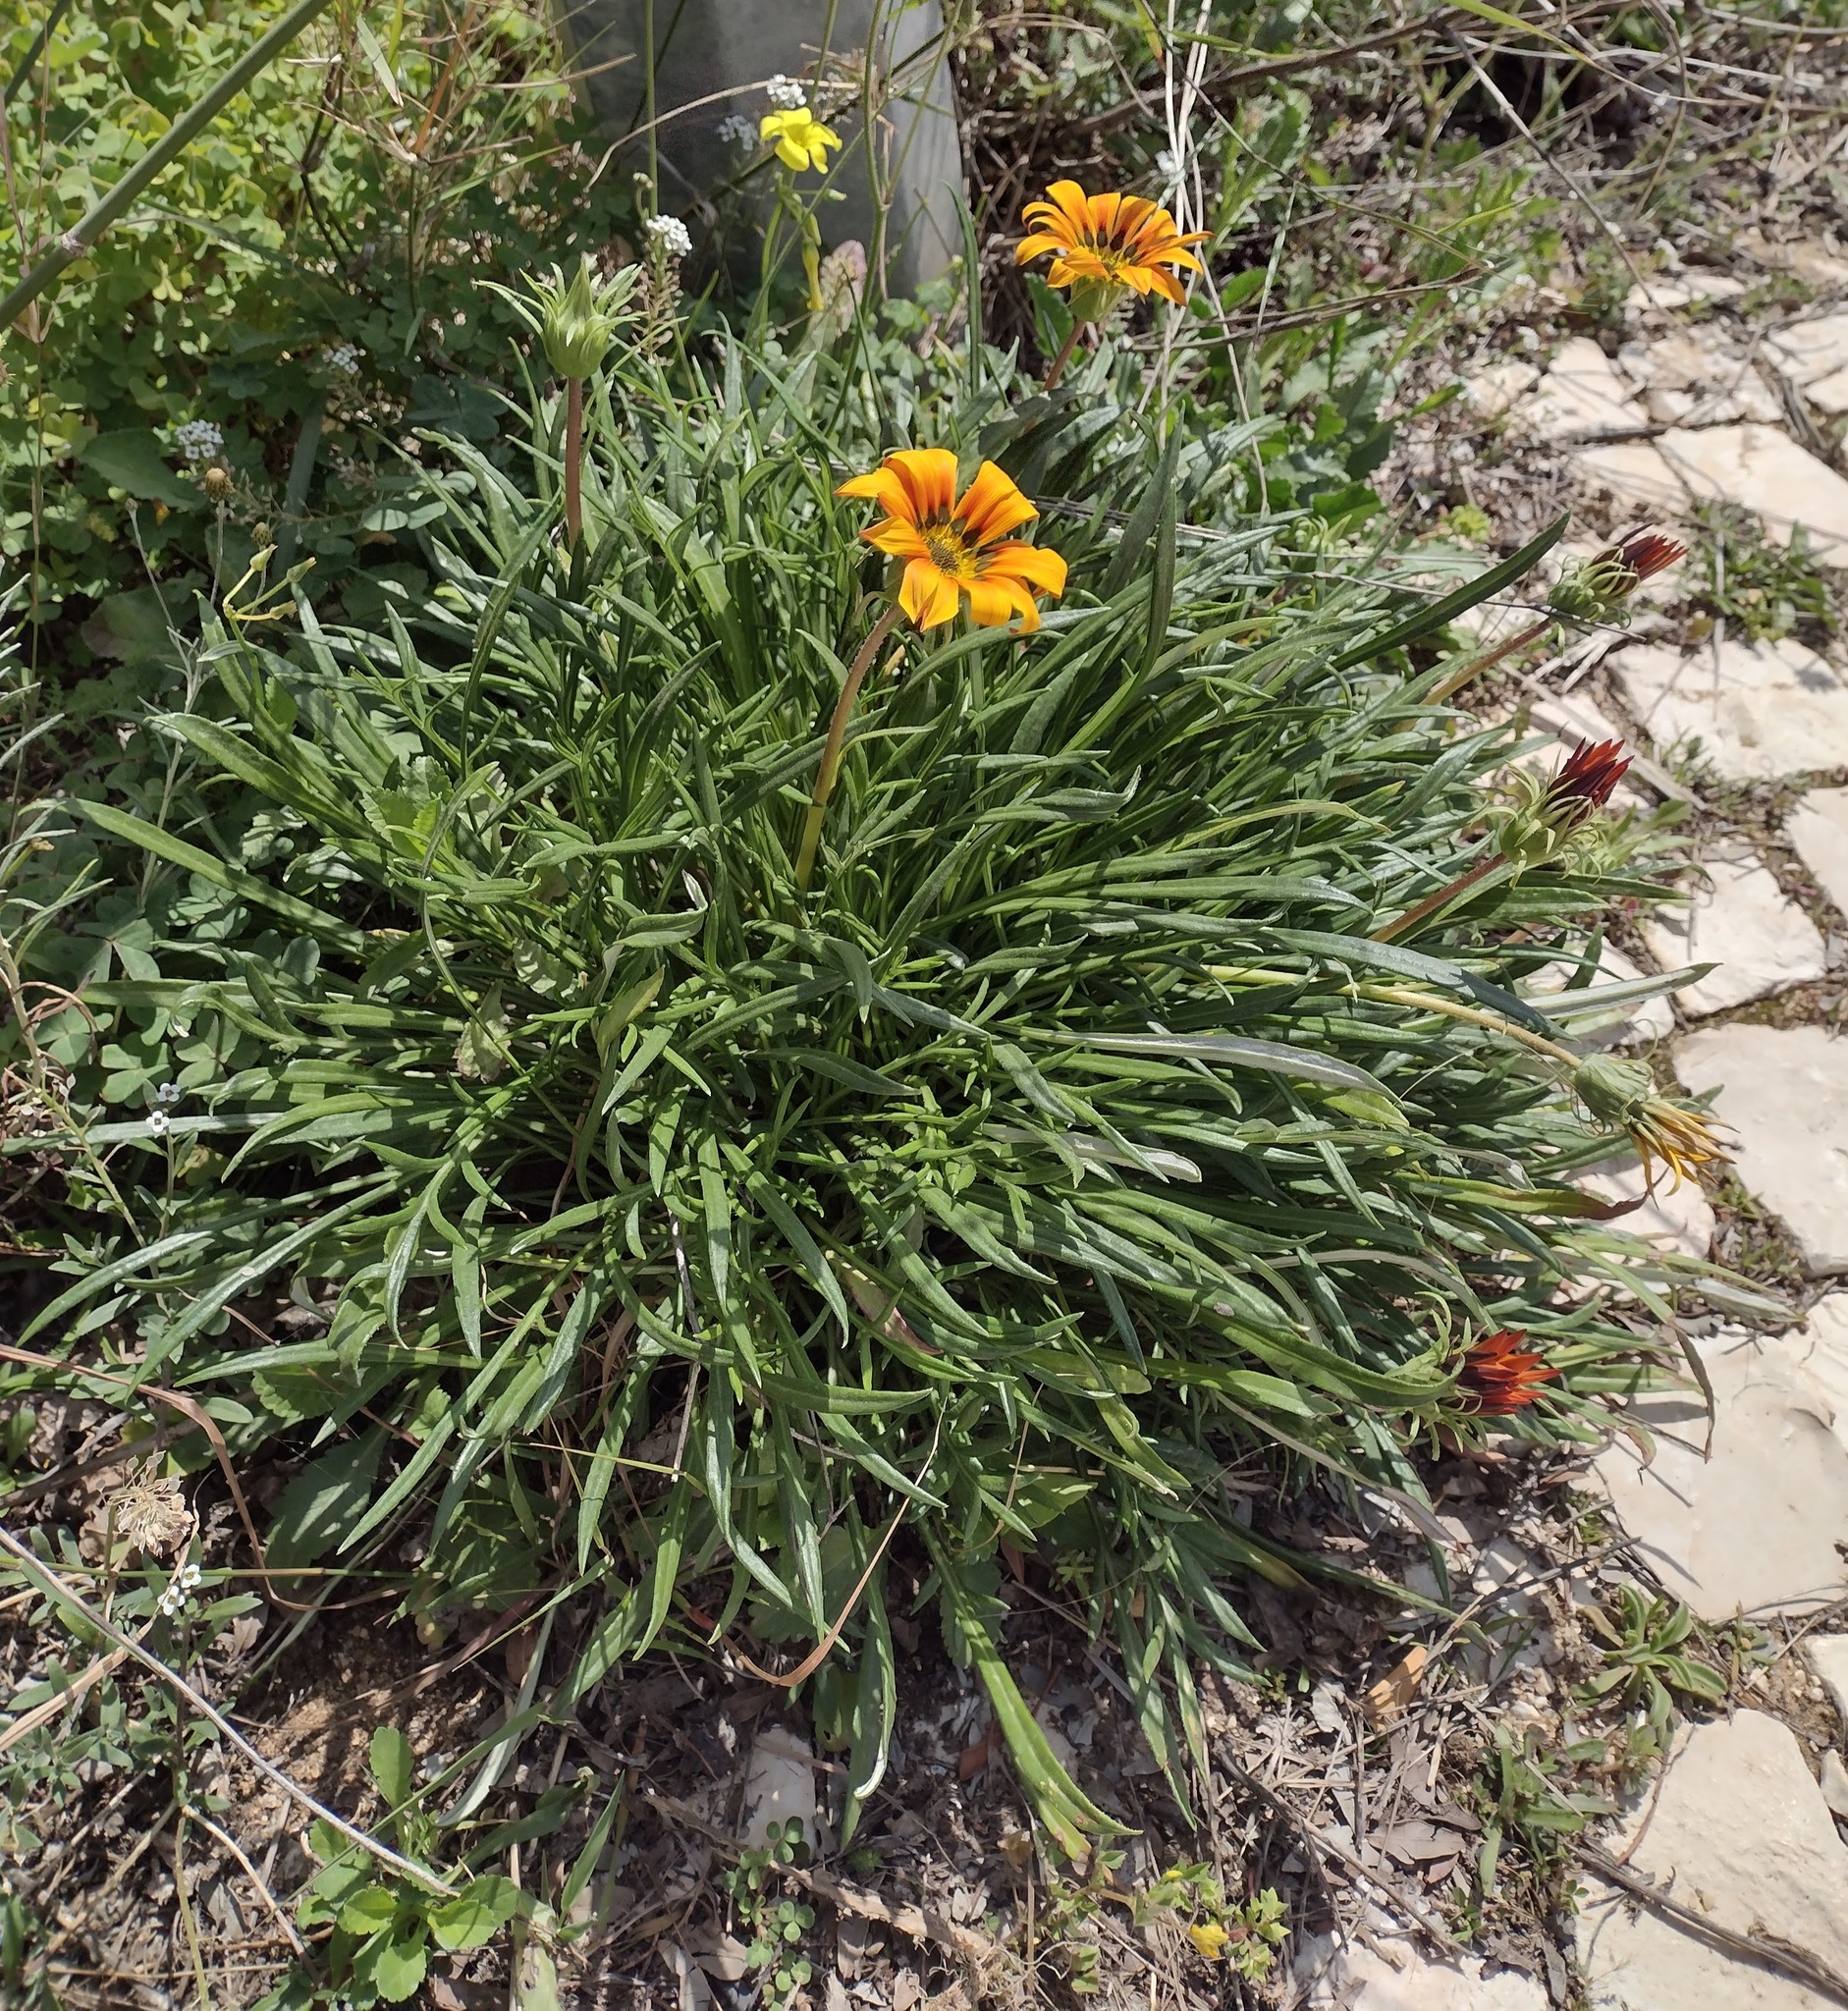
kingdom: Plantae
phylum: Tracheophyta
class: Magnoliopsida
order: Asterales
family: Asteraceae
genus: Gazania
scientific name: Gazania splendens
